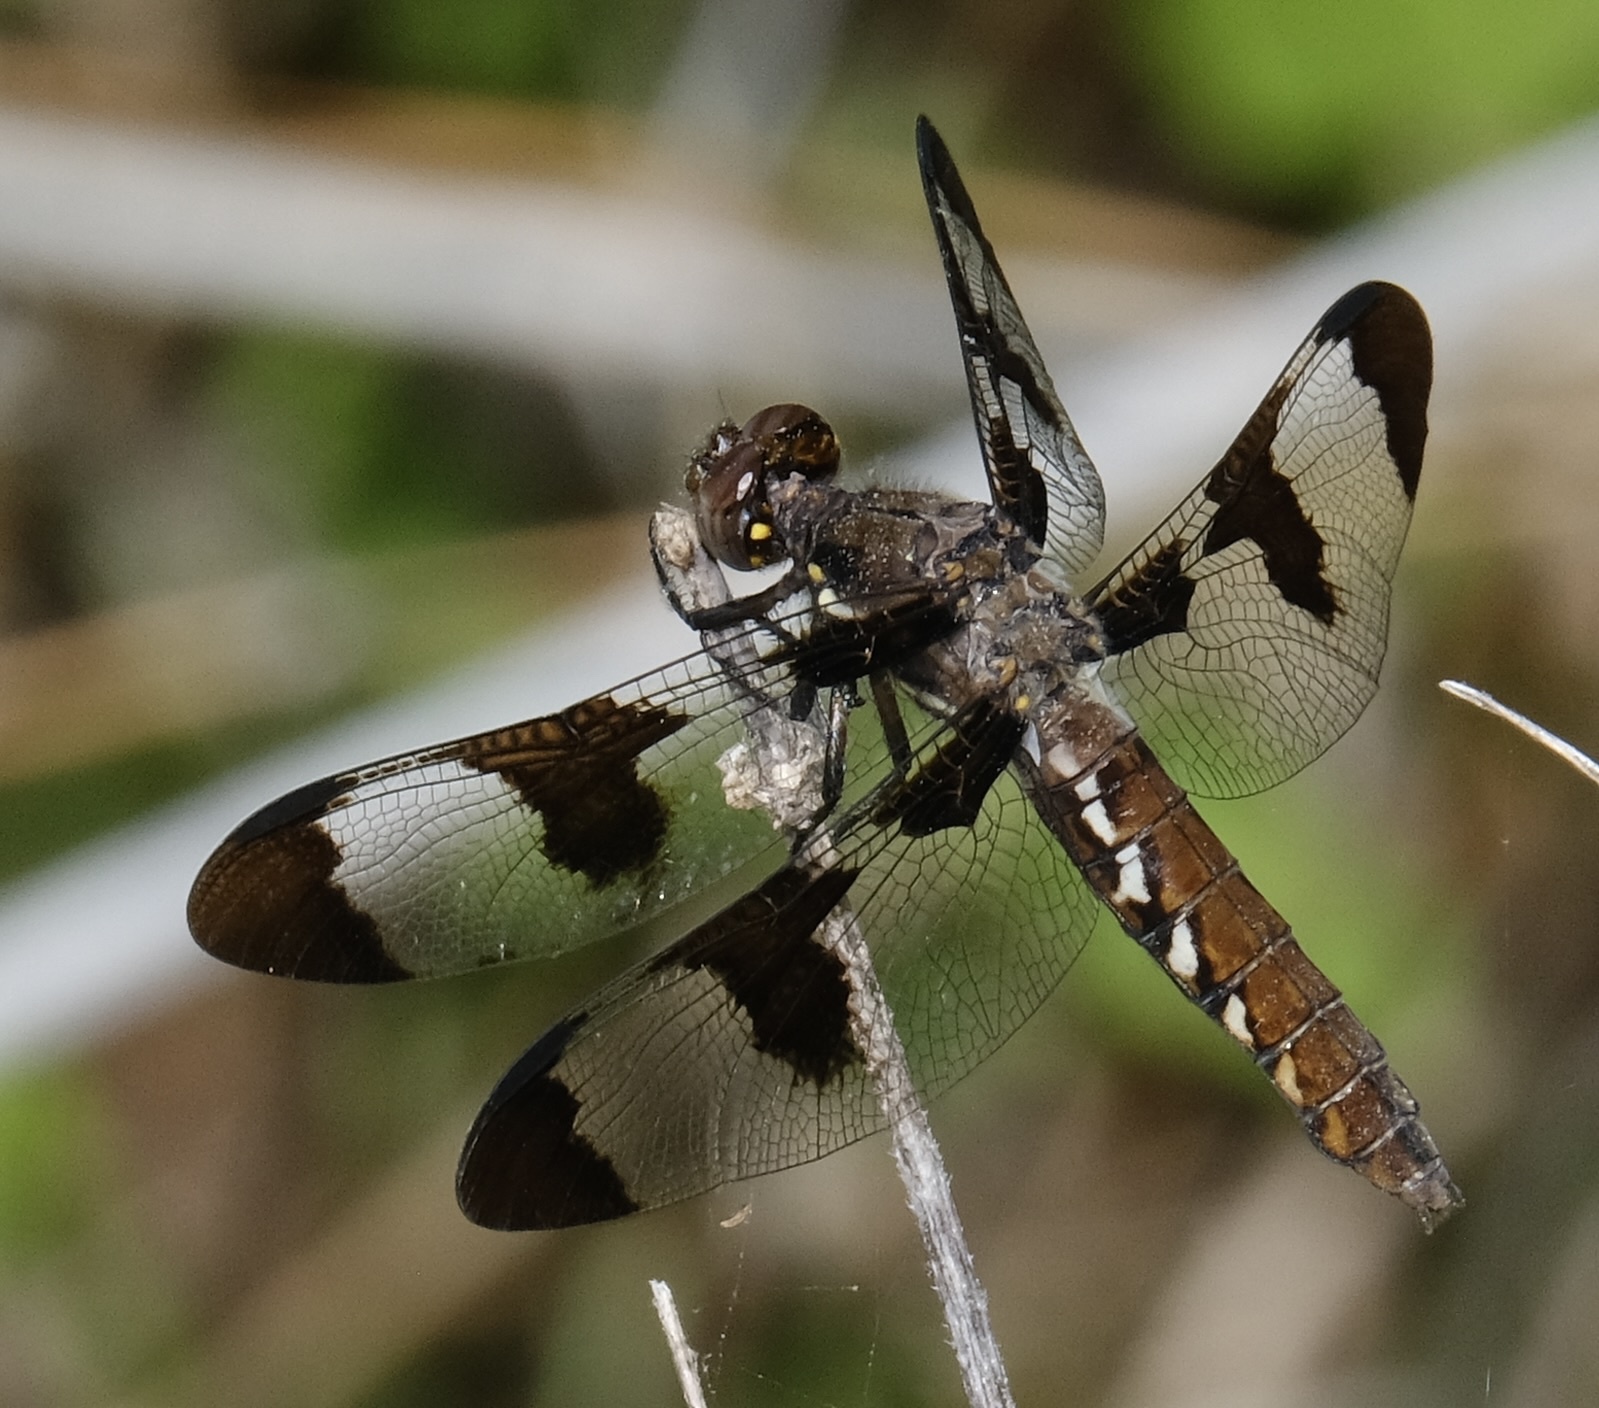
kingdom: Animalia
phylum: Arthropoda
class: Insecta
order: Odonata
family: Libellulidae
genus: Plathemis
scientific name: Plathemis lydia
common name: Common whitetail
